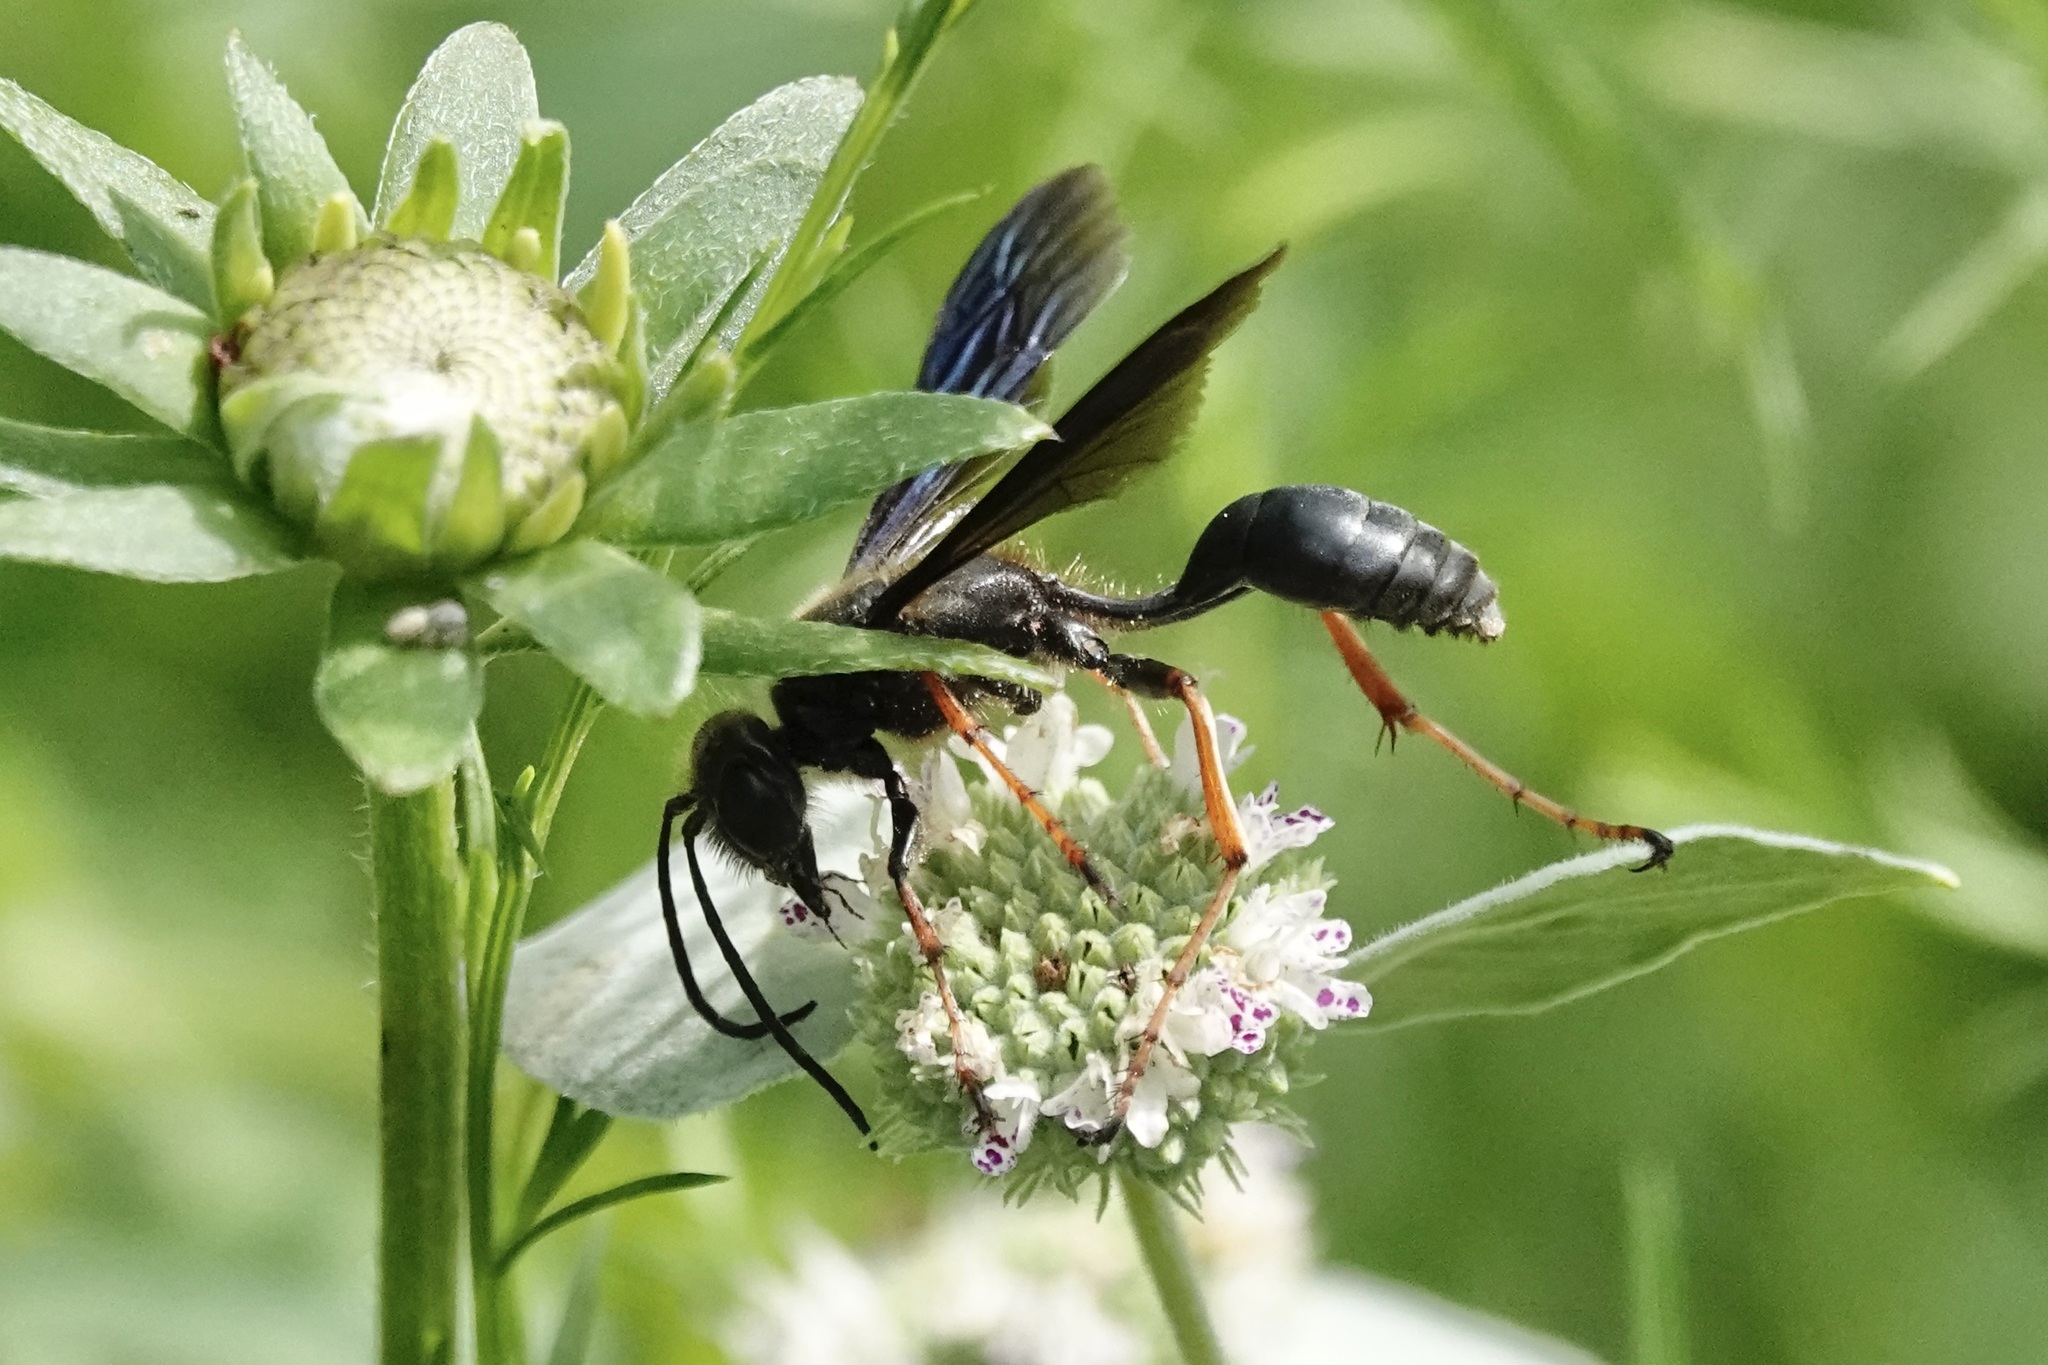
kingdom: Animalia
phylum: Arthropoda
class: Insecta
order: Hymenoptera
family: Sphecidae
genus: Isodontia
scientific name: Isodontia auripes
